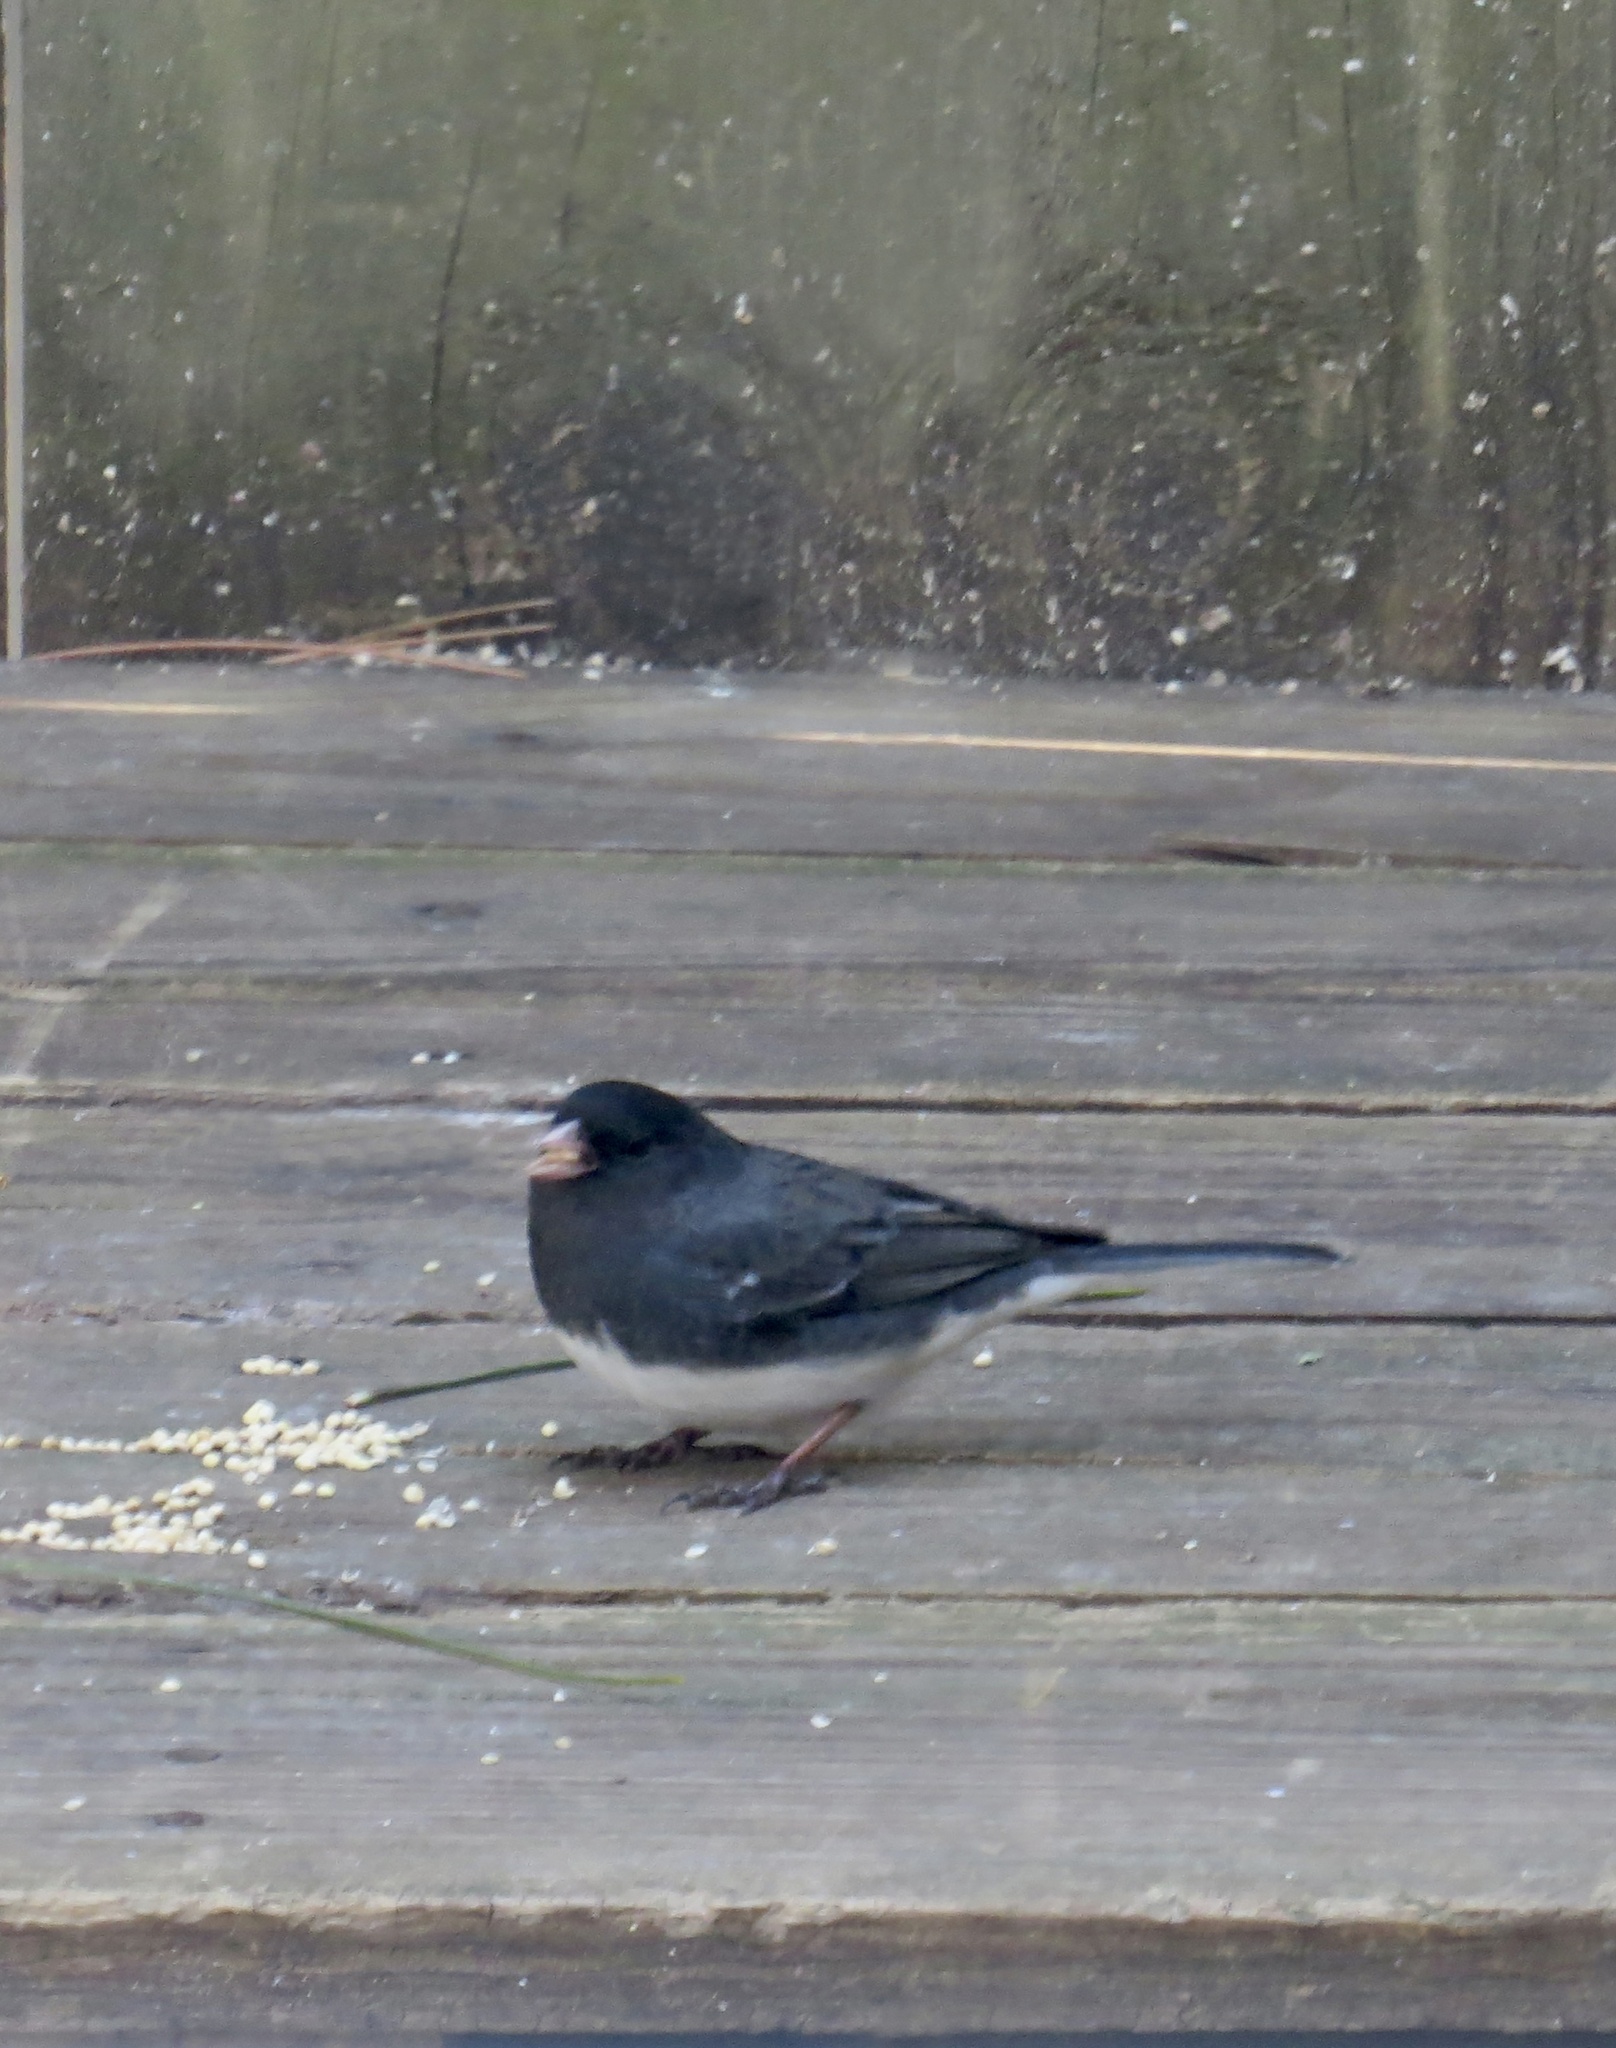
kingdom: Animalia
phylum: Chordata
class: Aves
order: Passeriformes
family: Passerellidae
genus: Junco
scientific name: Junco hyemalis
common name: Dark-eyed junco
